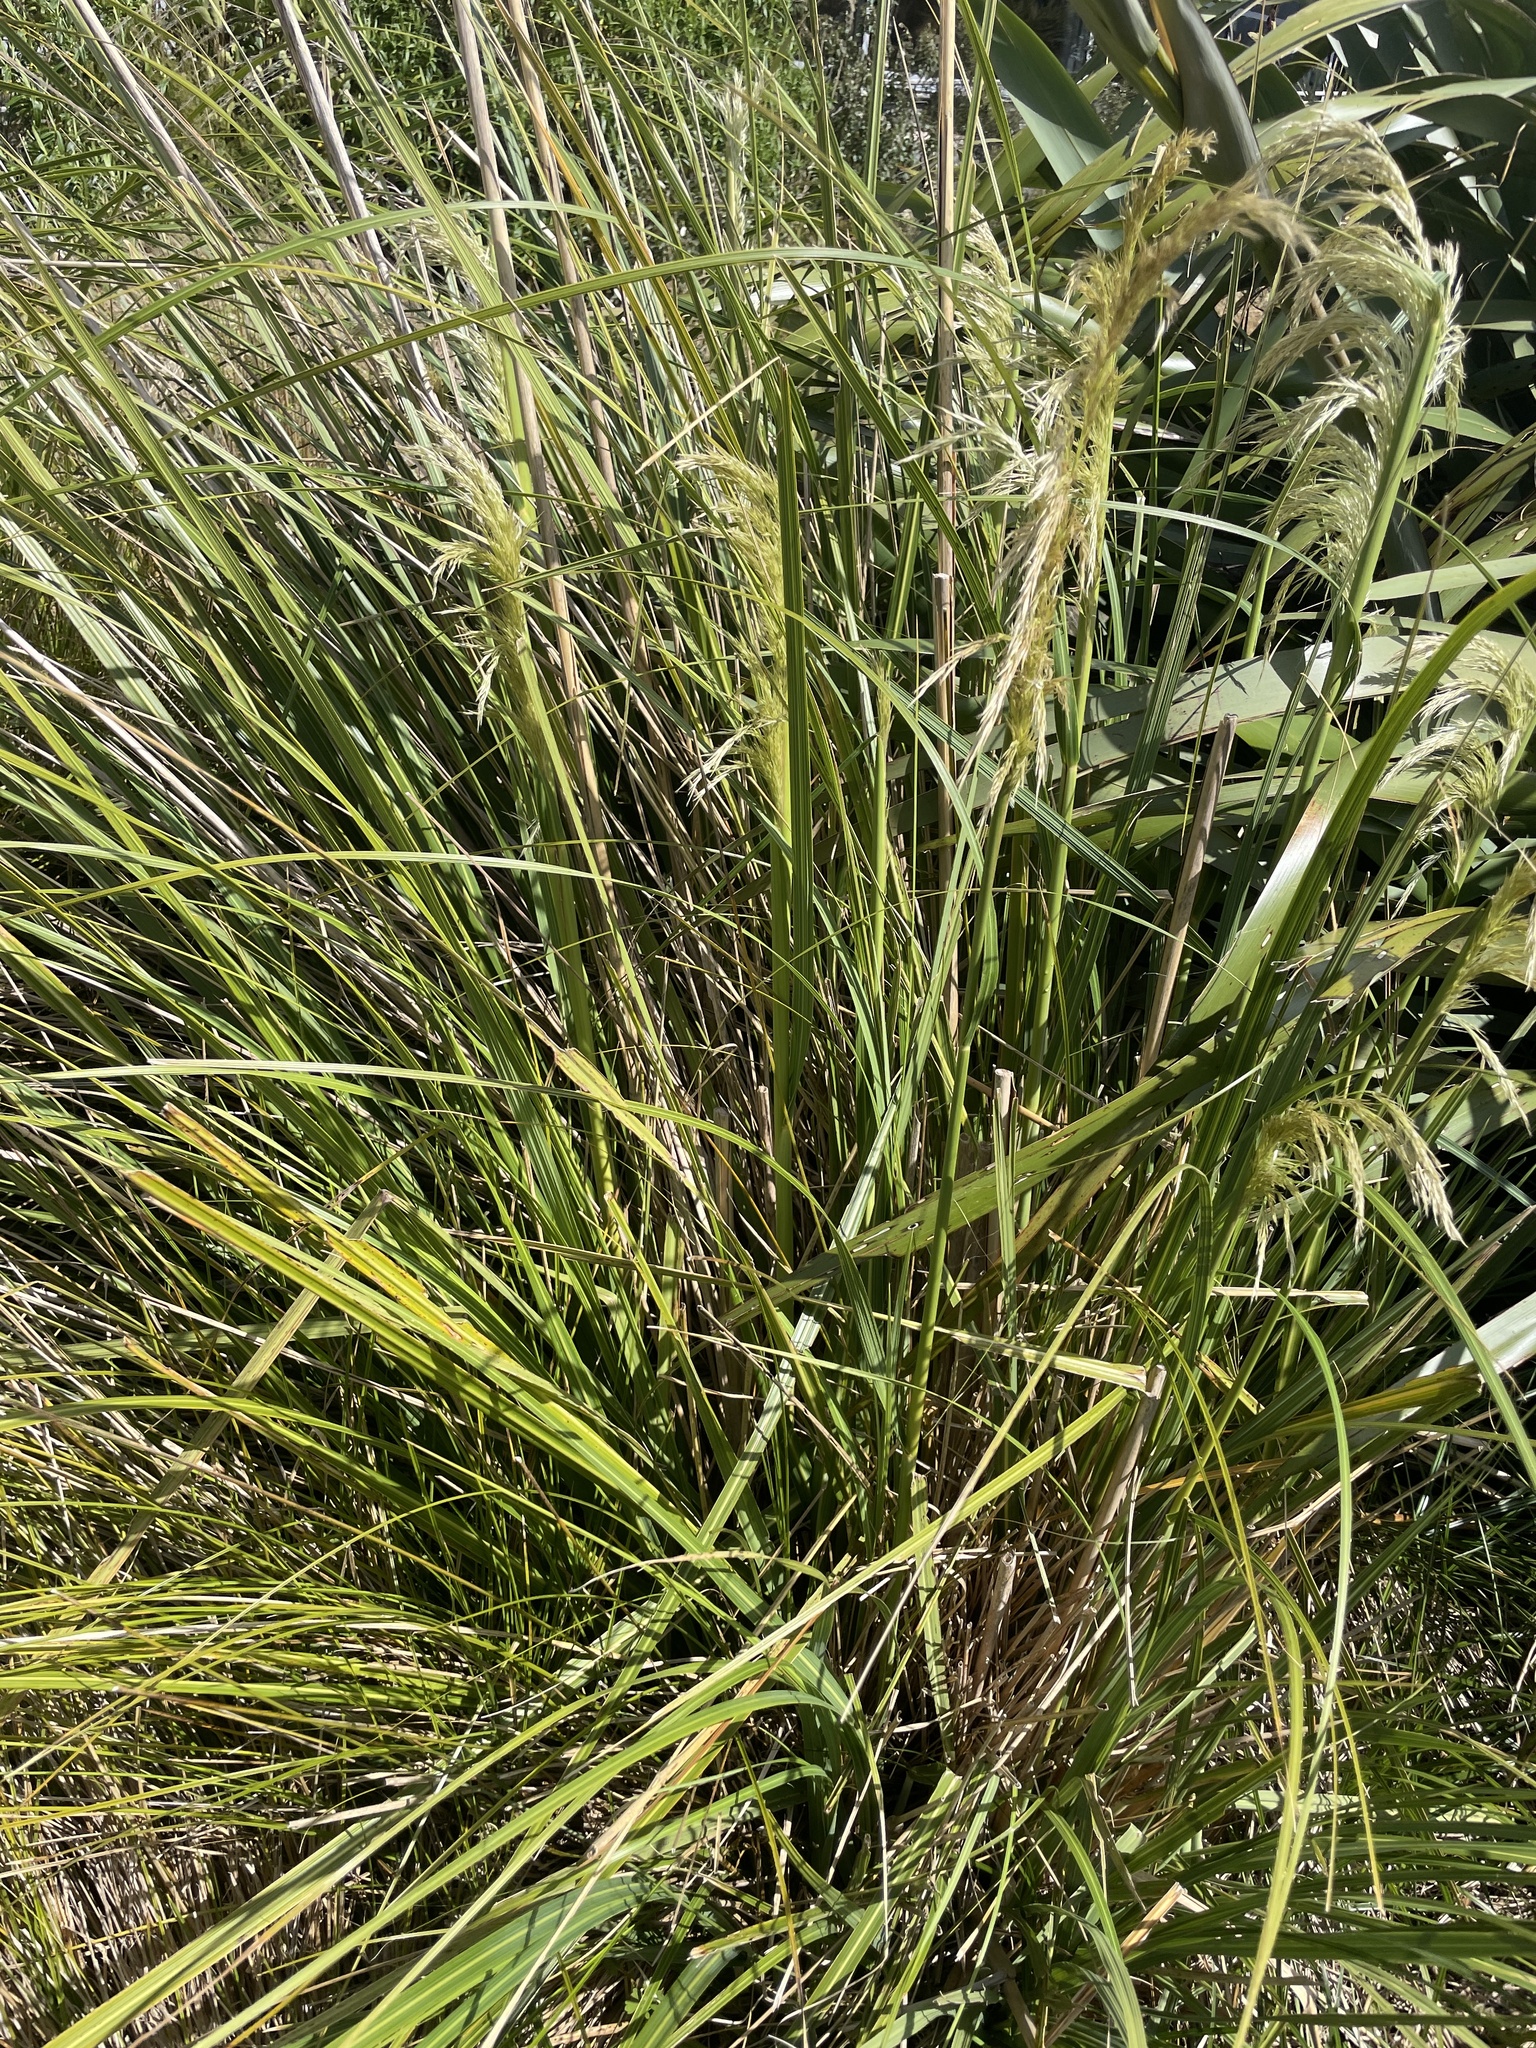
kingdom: Plantae
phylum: Tracheophyta
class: Liliopsida
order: Poales
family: Poaceae
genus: Austroderia
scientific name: Austroderia richardii
